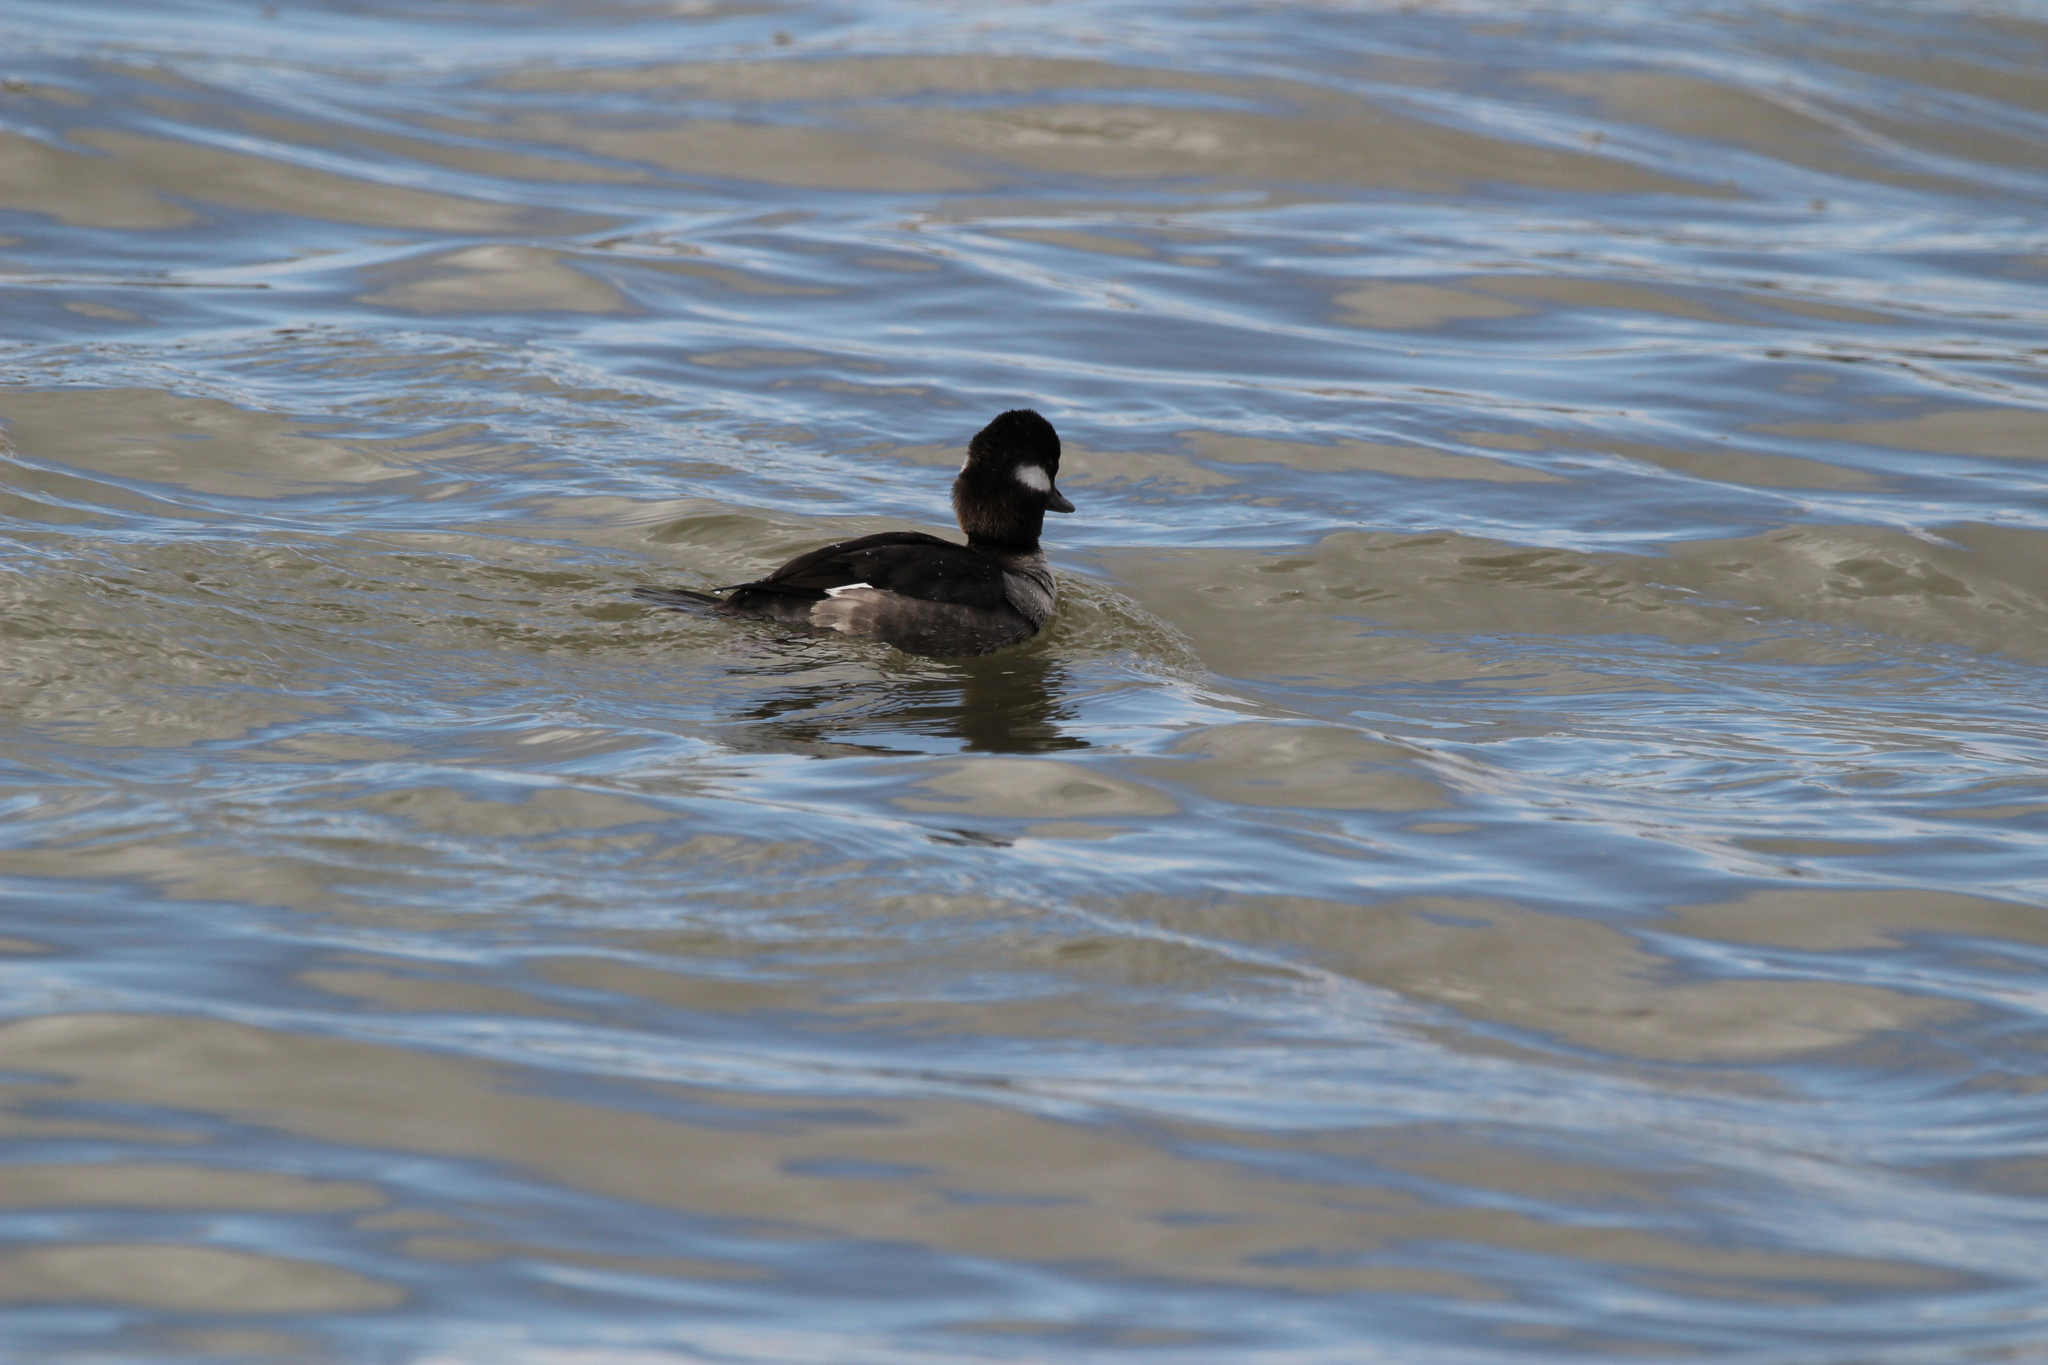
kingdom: Animalia
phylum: Chordata
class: Aves
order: Anseriformes
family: Anatidae
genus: Bucephala
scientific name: Bucephala albeola
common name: Bufflehead
